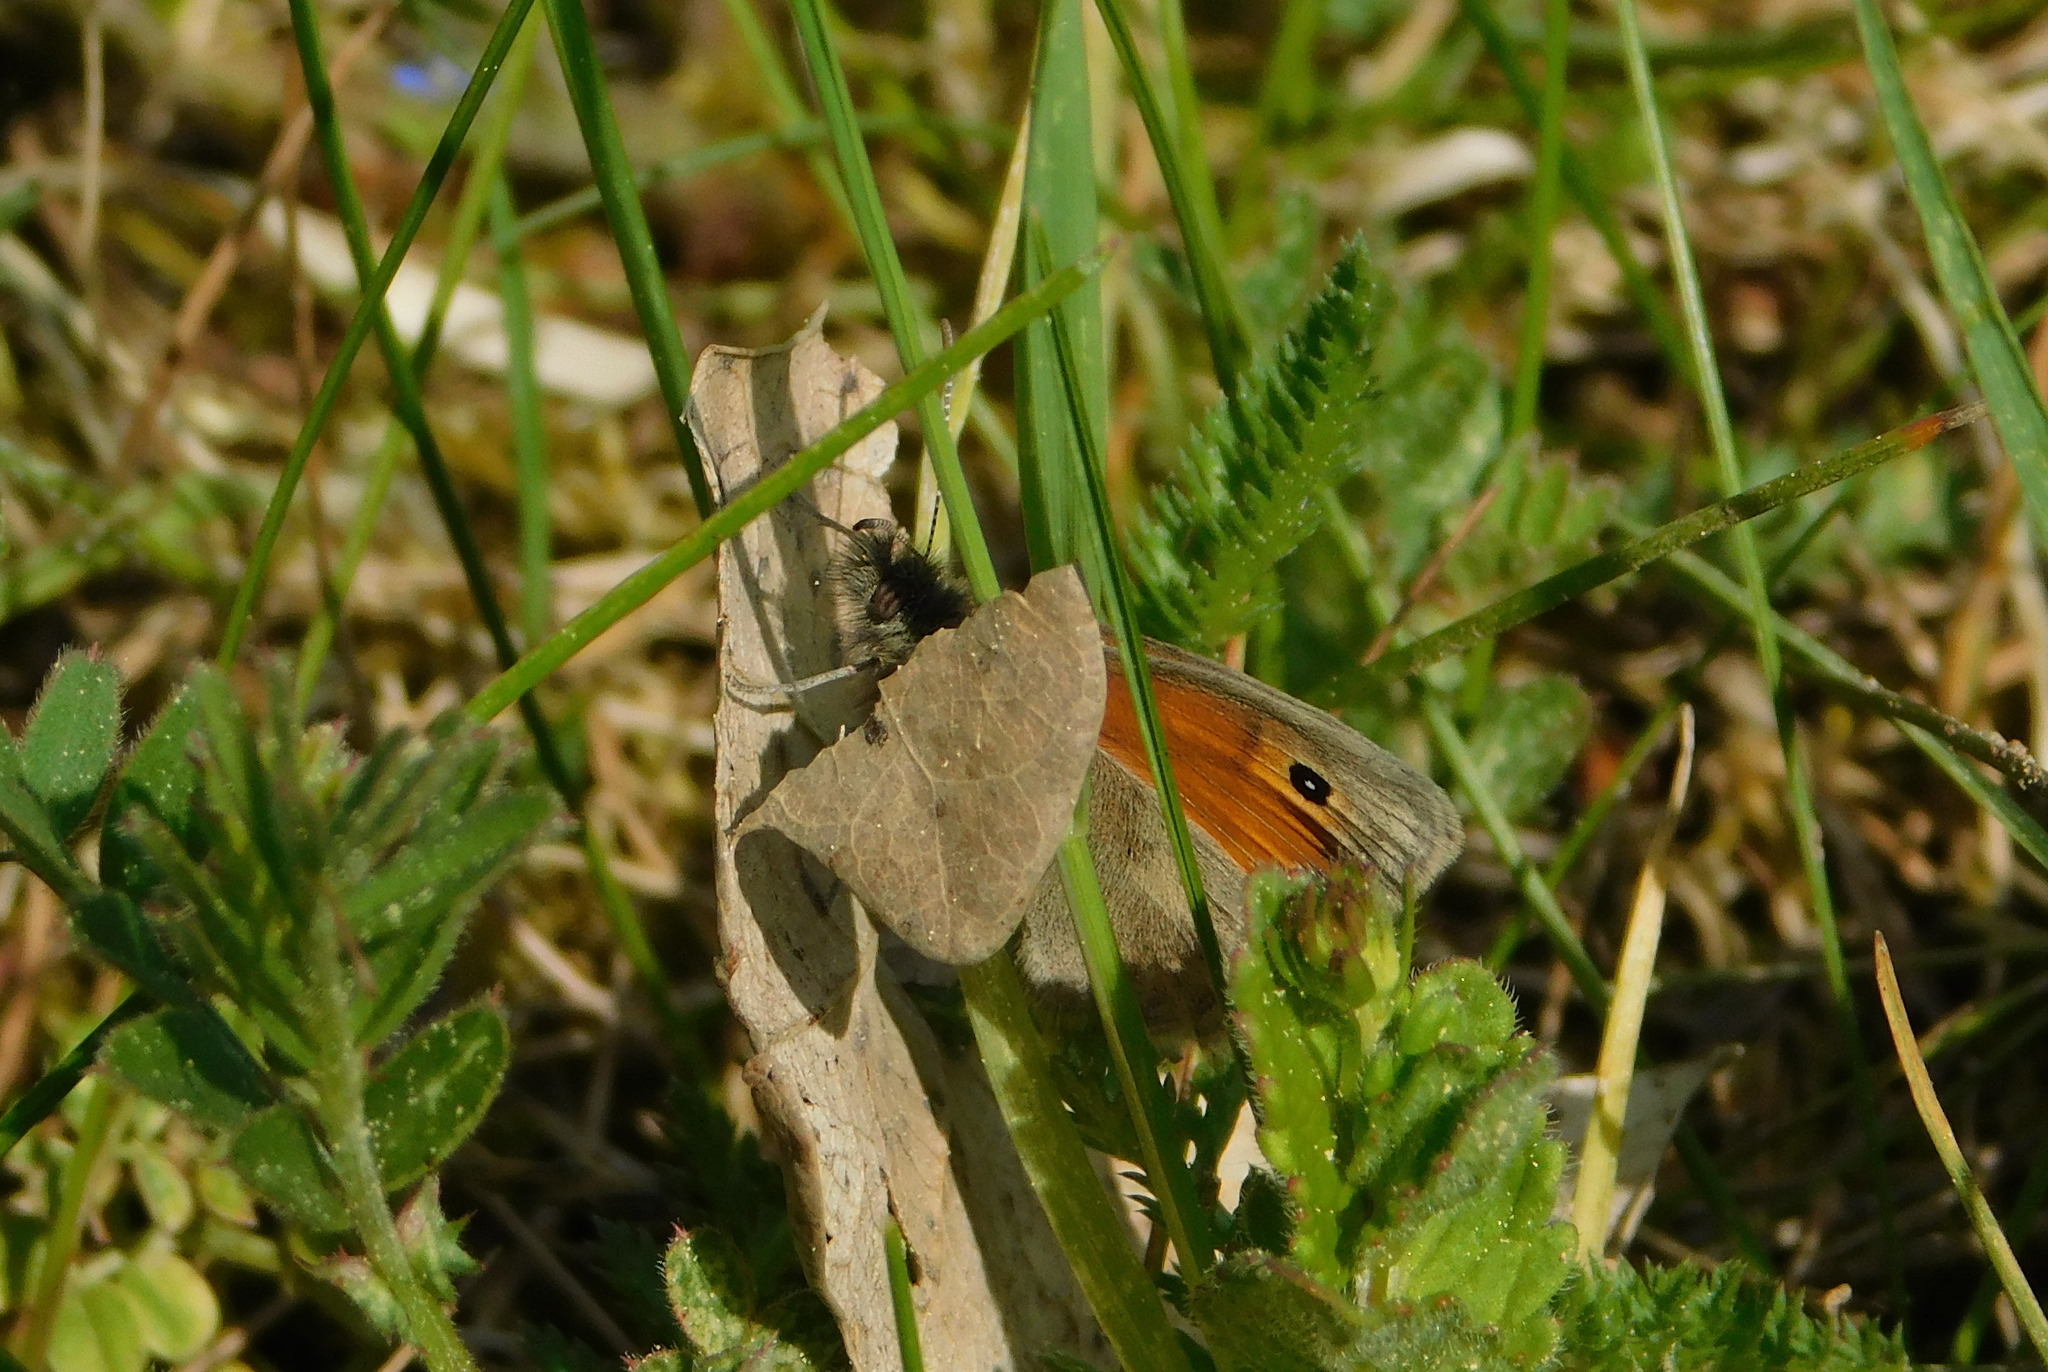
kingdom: Animalia
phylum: Arthropoda
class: Insecta
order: Lepidoptera
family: Nymphalidae
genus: Coenonympha
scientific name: Coenonympha pamphilus
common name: Small heath
